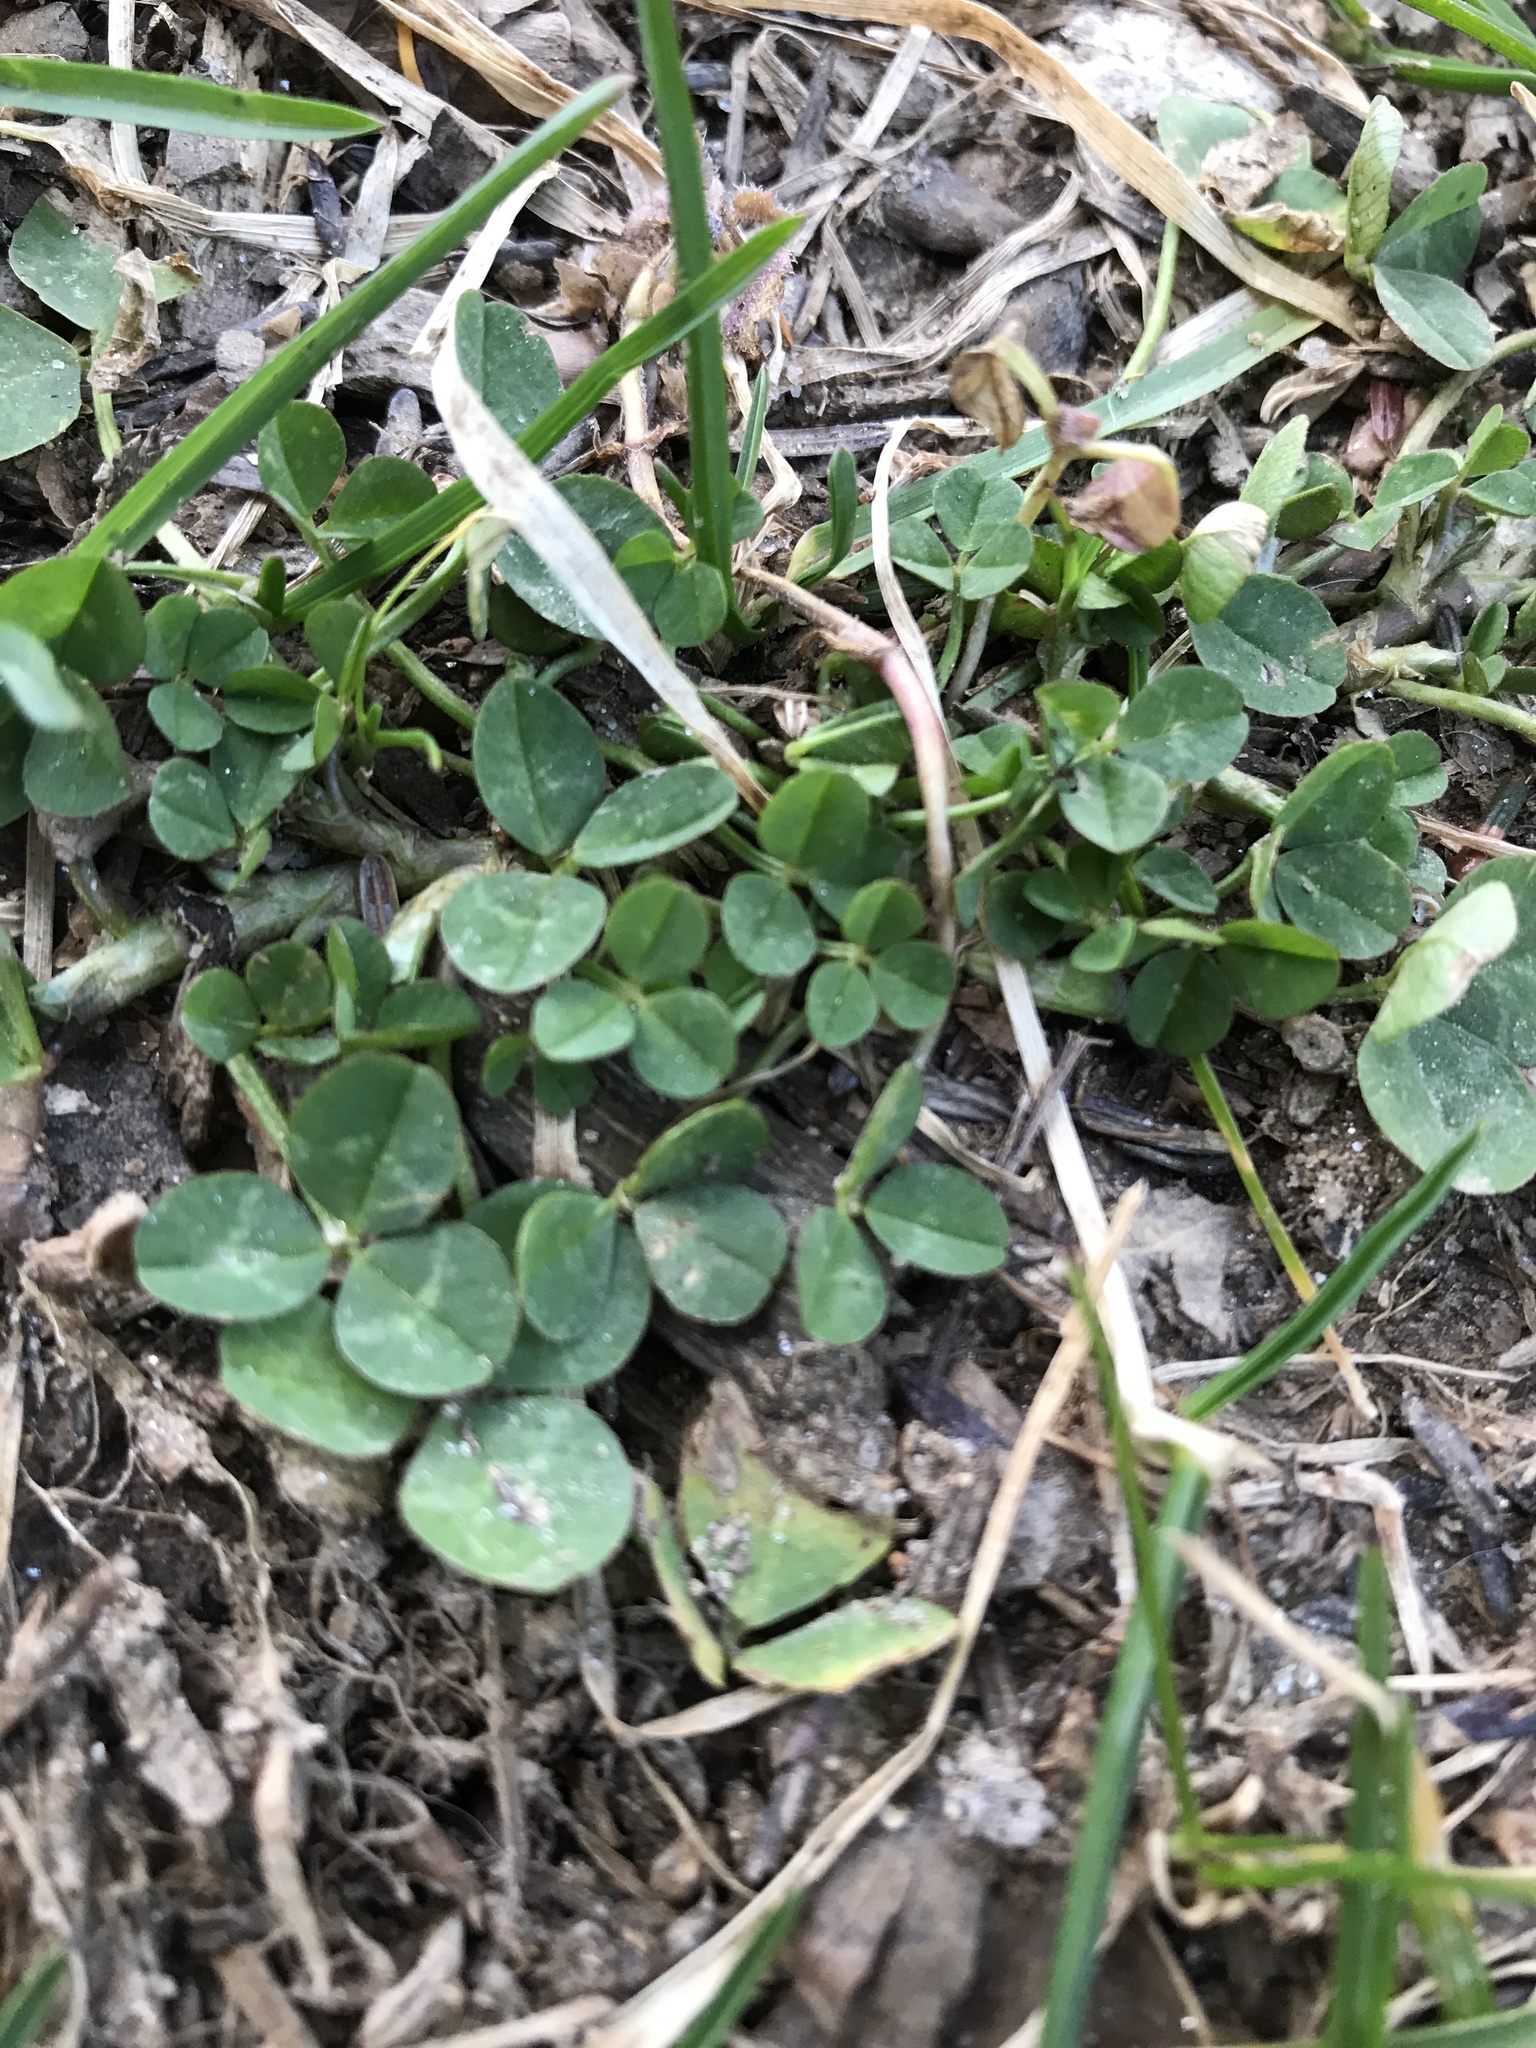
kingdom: Plantae
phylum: Tracheophyta
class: Magnoliopsida
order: Fabales
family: Fabaceae
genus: Trifolium
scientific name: Trifolium repens
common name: White clover
